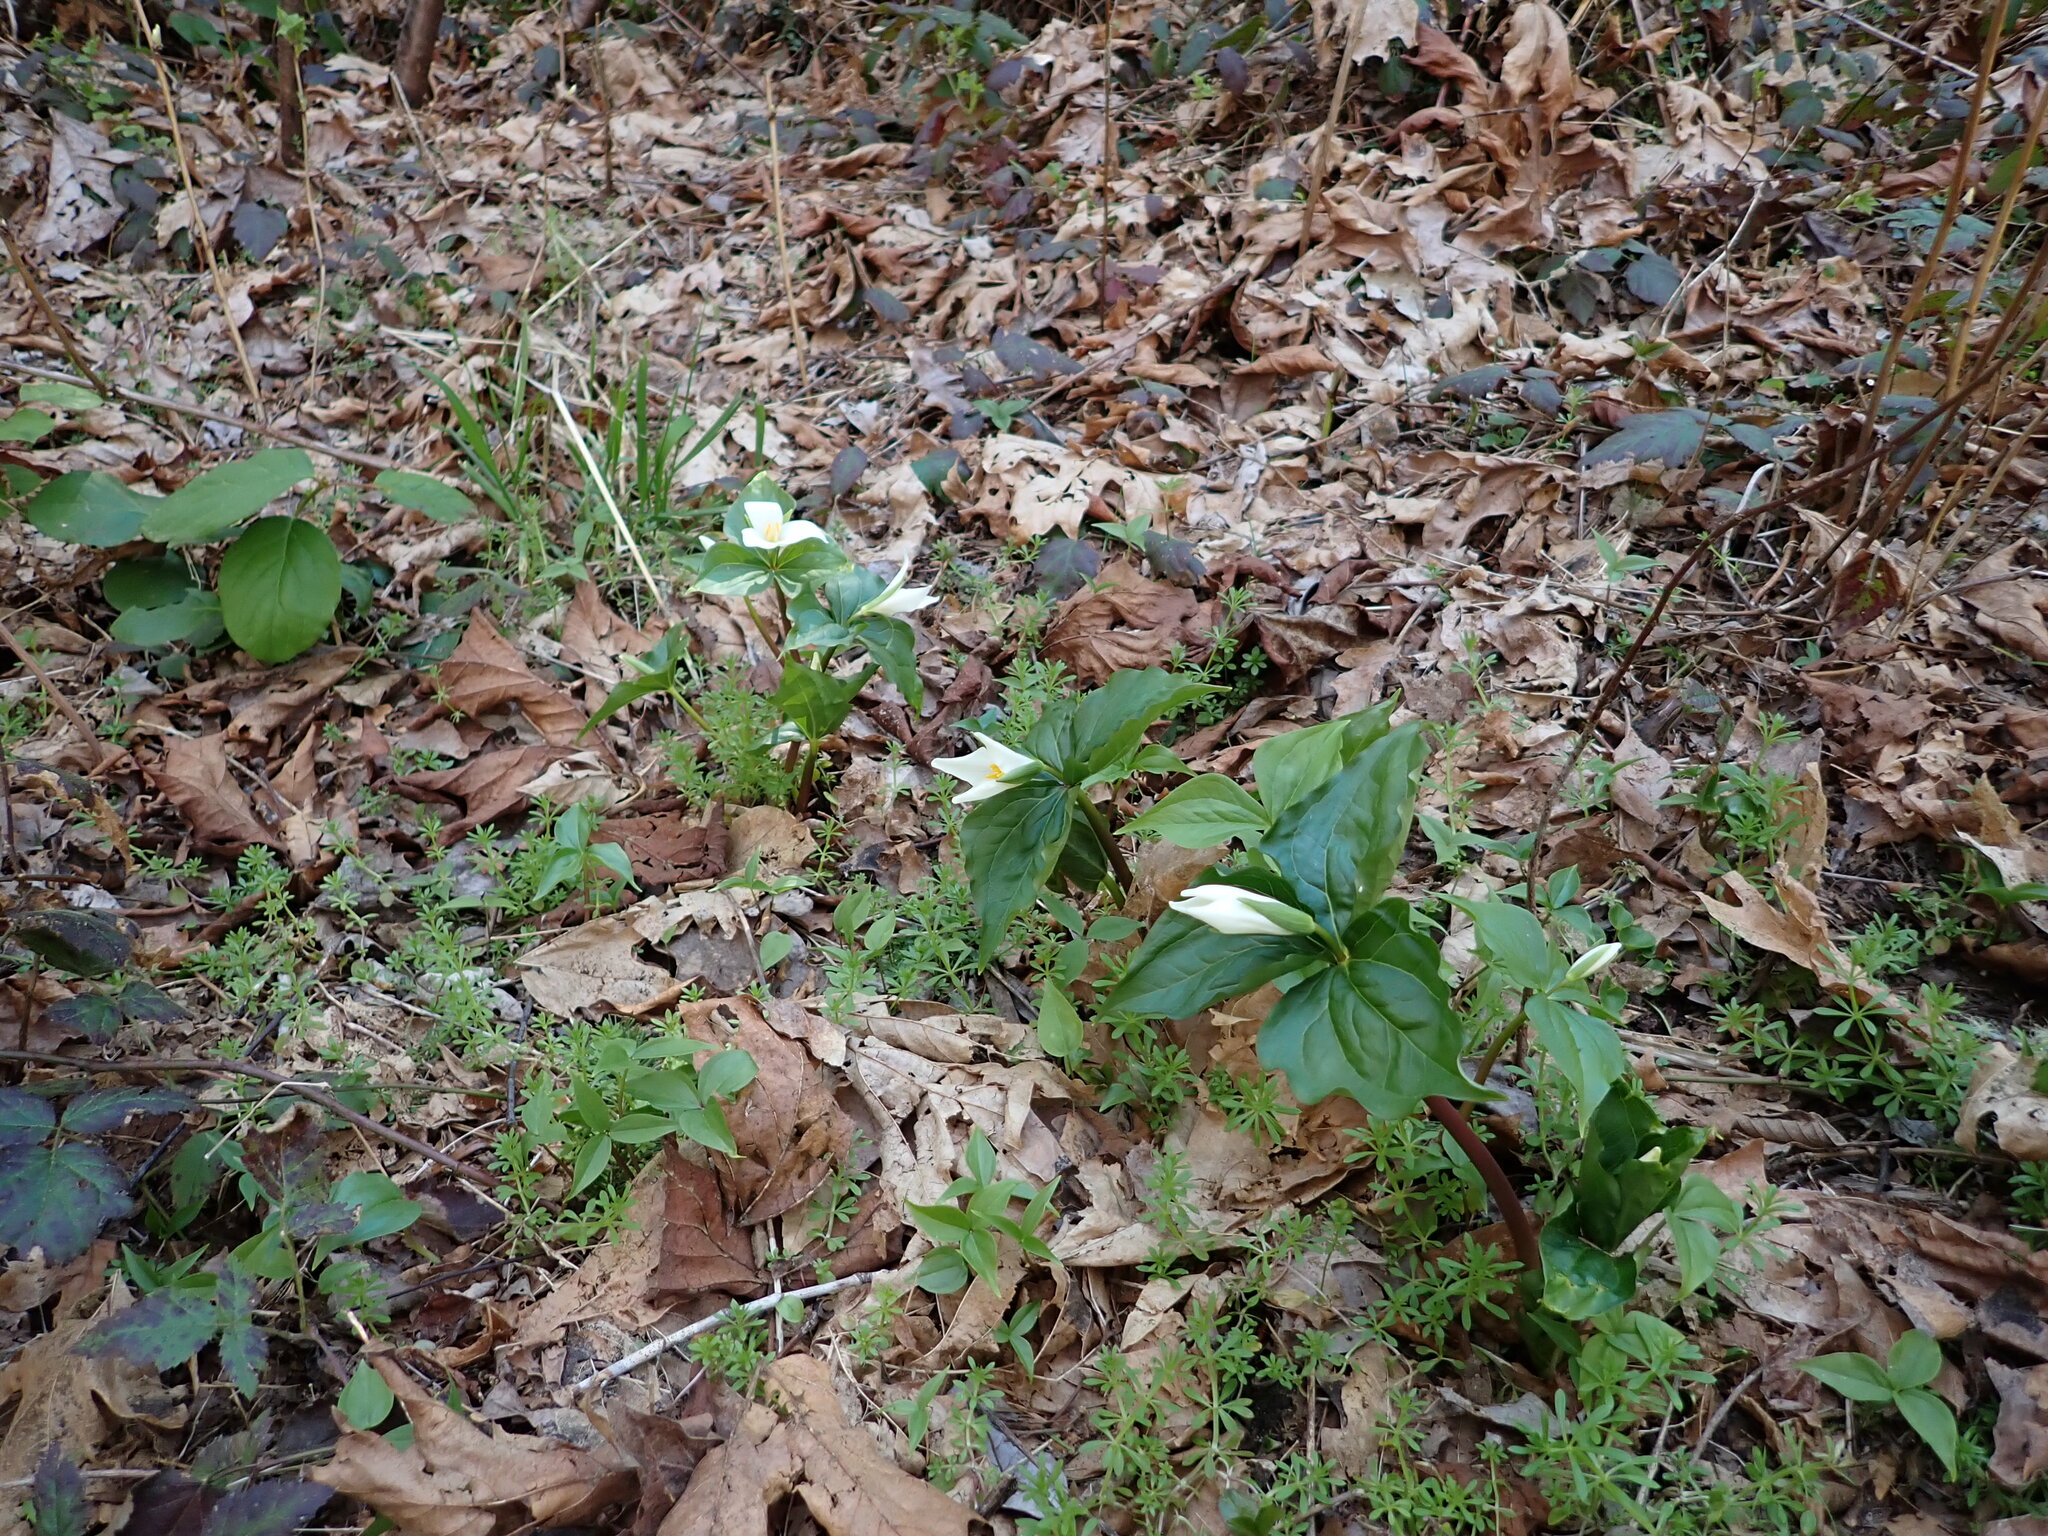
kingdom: Plantae
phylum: Tracheophyta
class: Liliopsida
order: Liliales
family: Melanthiaceae
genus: Trillium
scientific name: Trillium ovatum
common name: Pacific trillium
